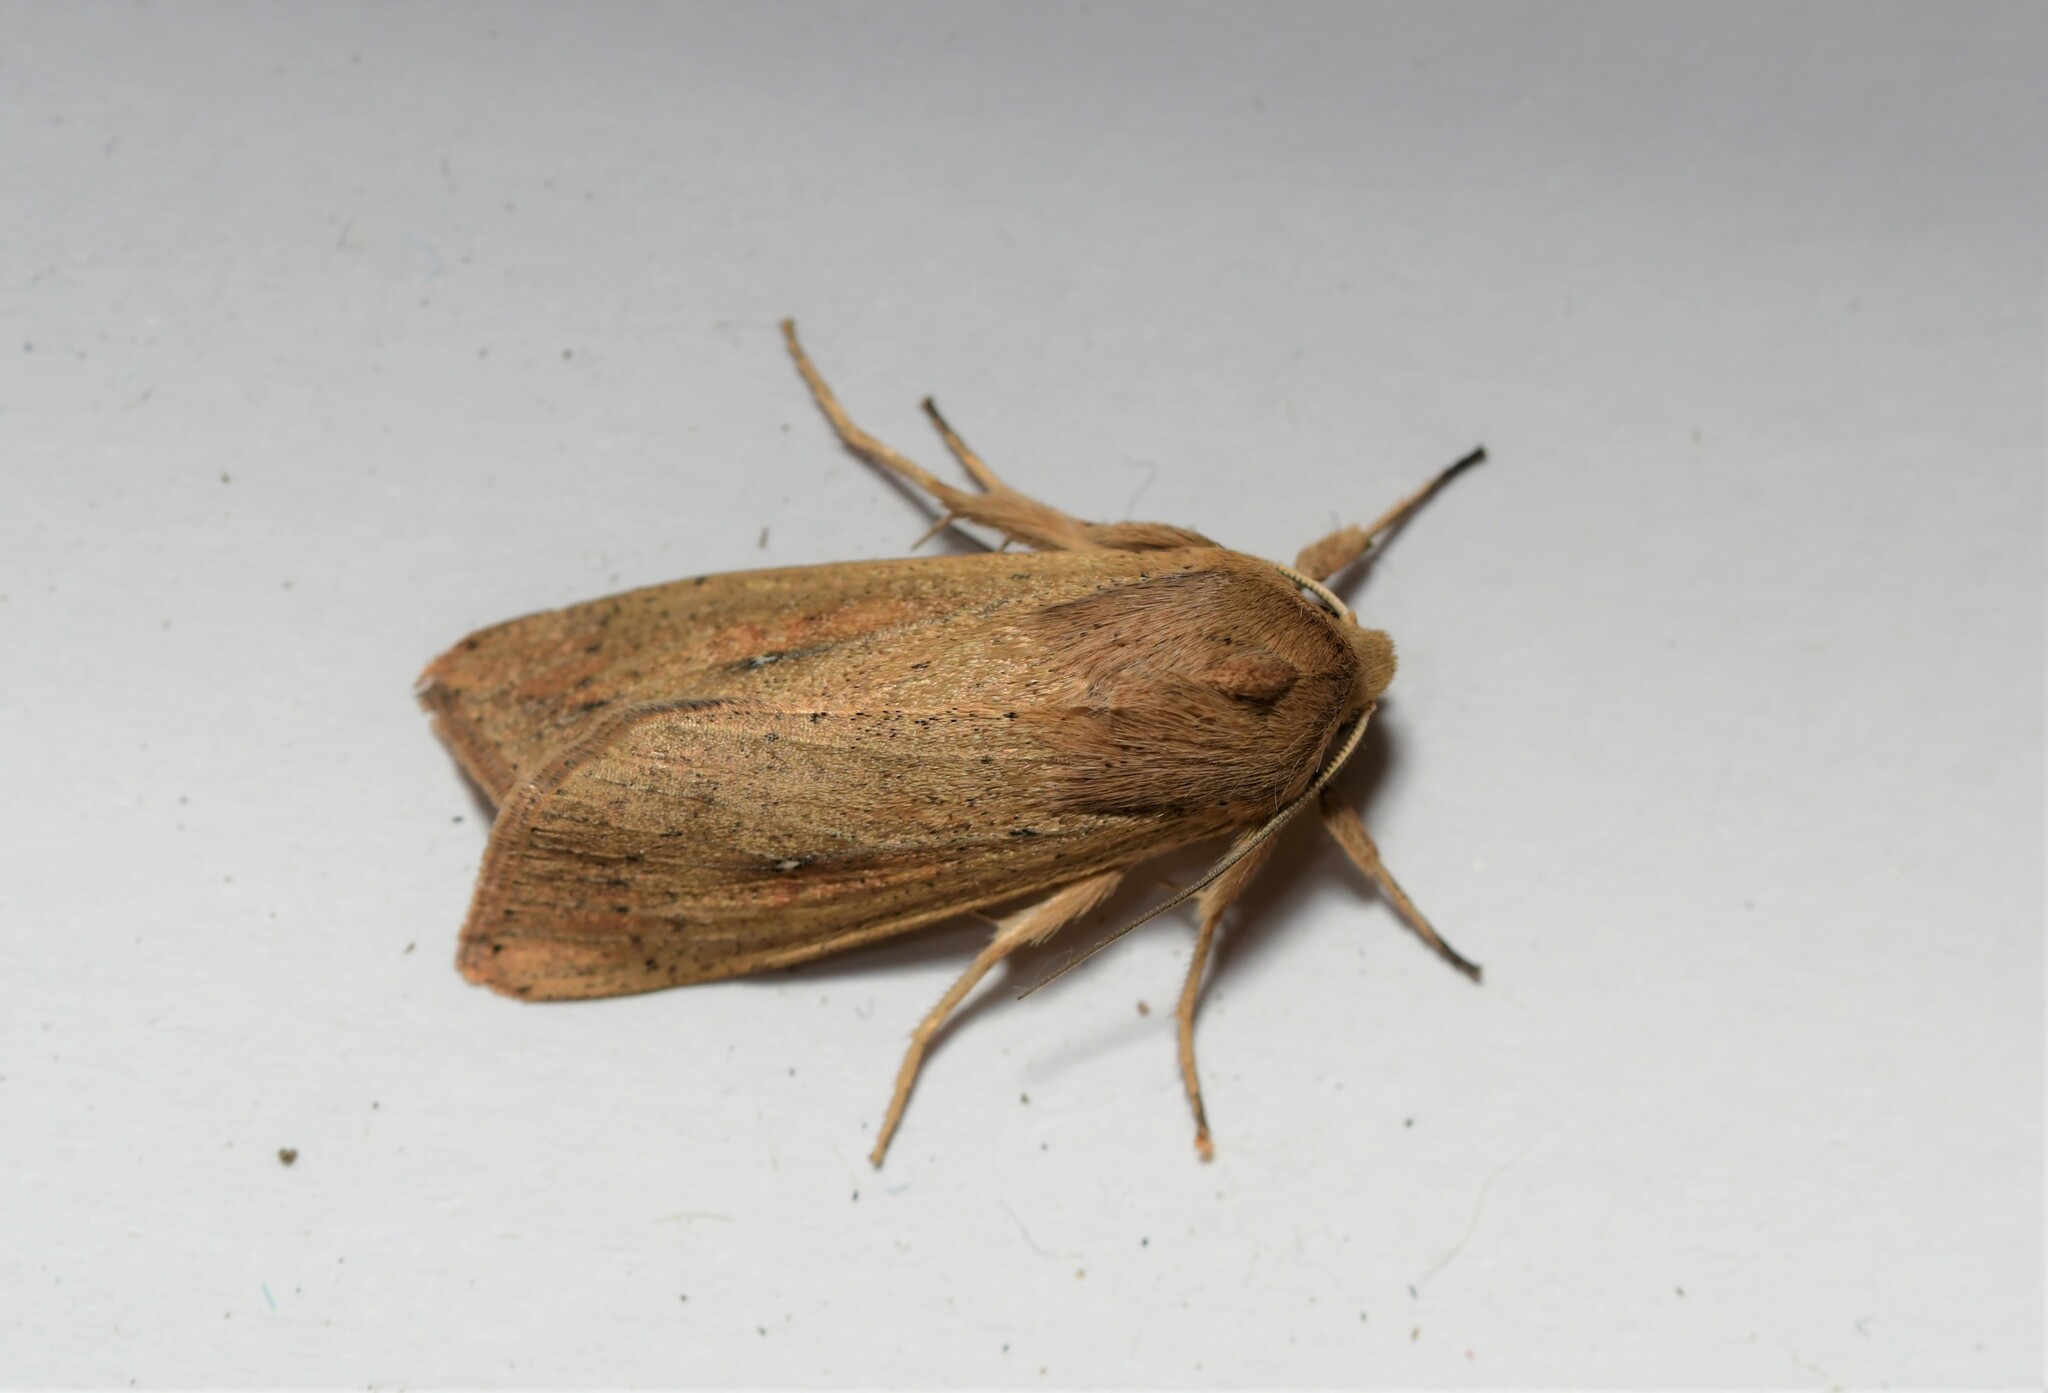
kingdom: Animalia
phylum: Arthropoda
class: Insecta
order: Lepidoptera
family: Noctuidae
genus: Mythimna
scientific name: Mythimna unipuncta
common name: White-speck
